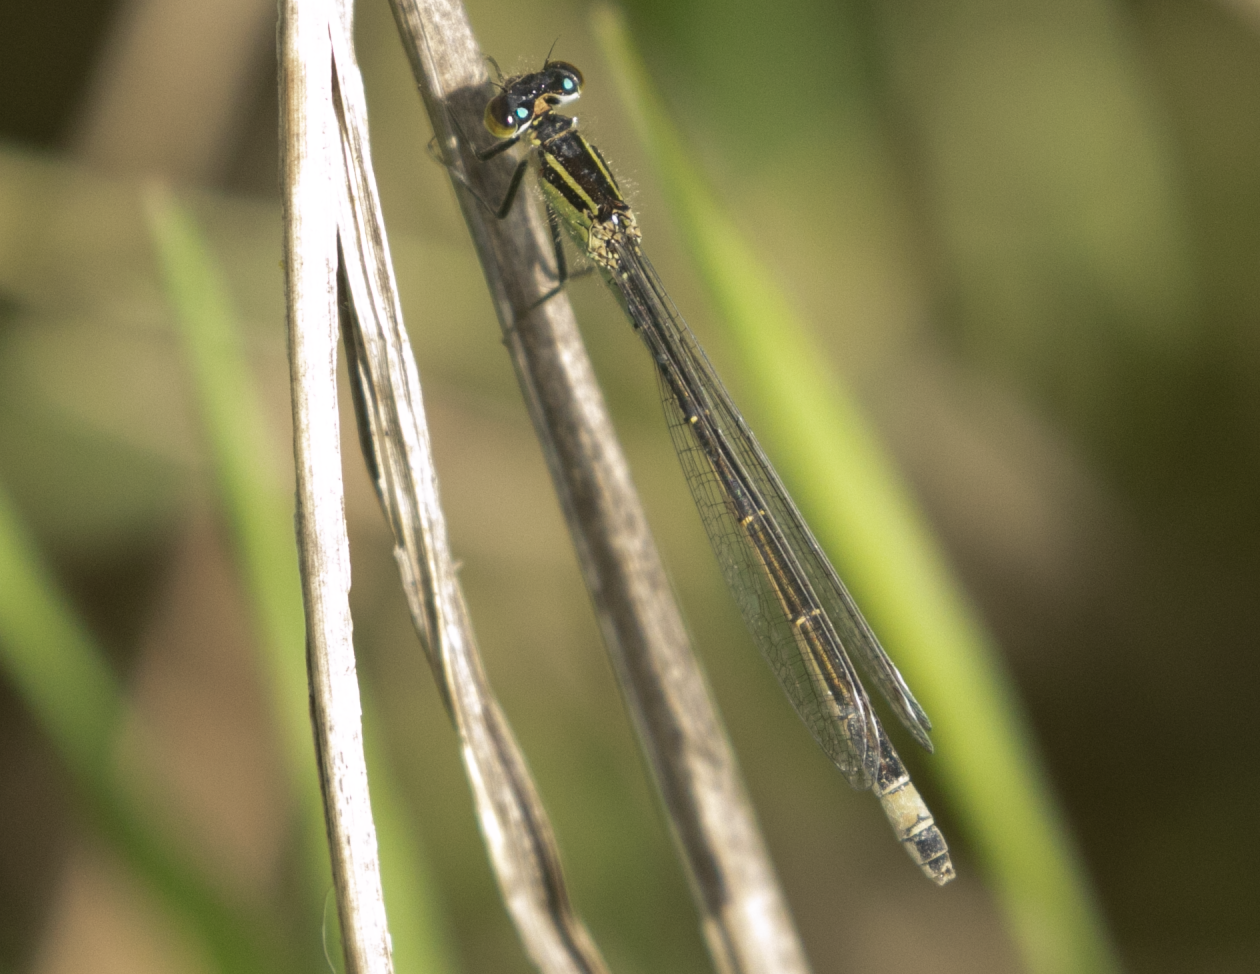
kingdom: Animalia
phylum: Arthropoda
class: Insecta
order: Odonata
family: Coenagrionidae
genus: Ischnura
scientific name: Ischnura elegans
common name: Blue-tailed damselfly
